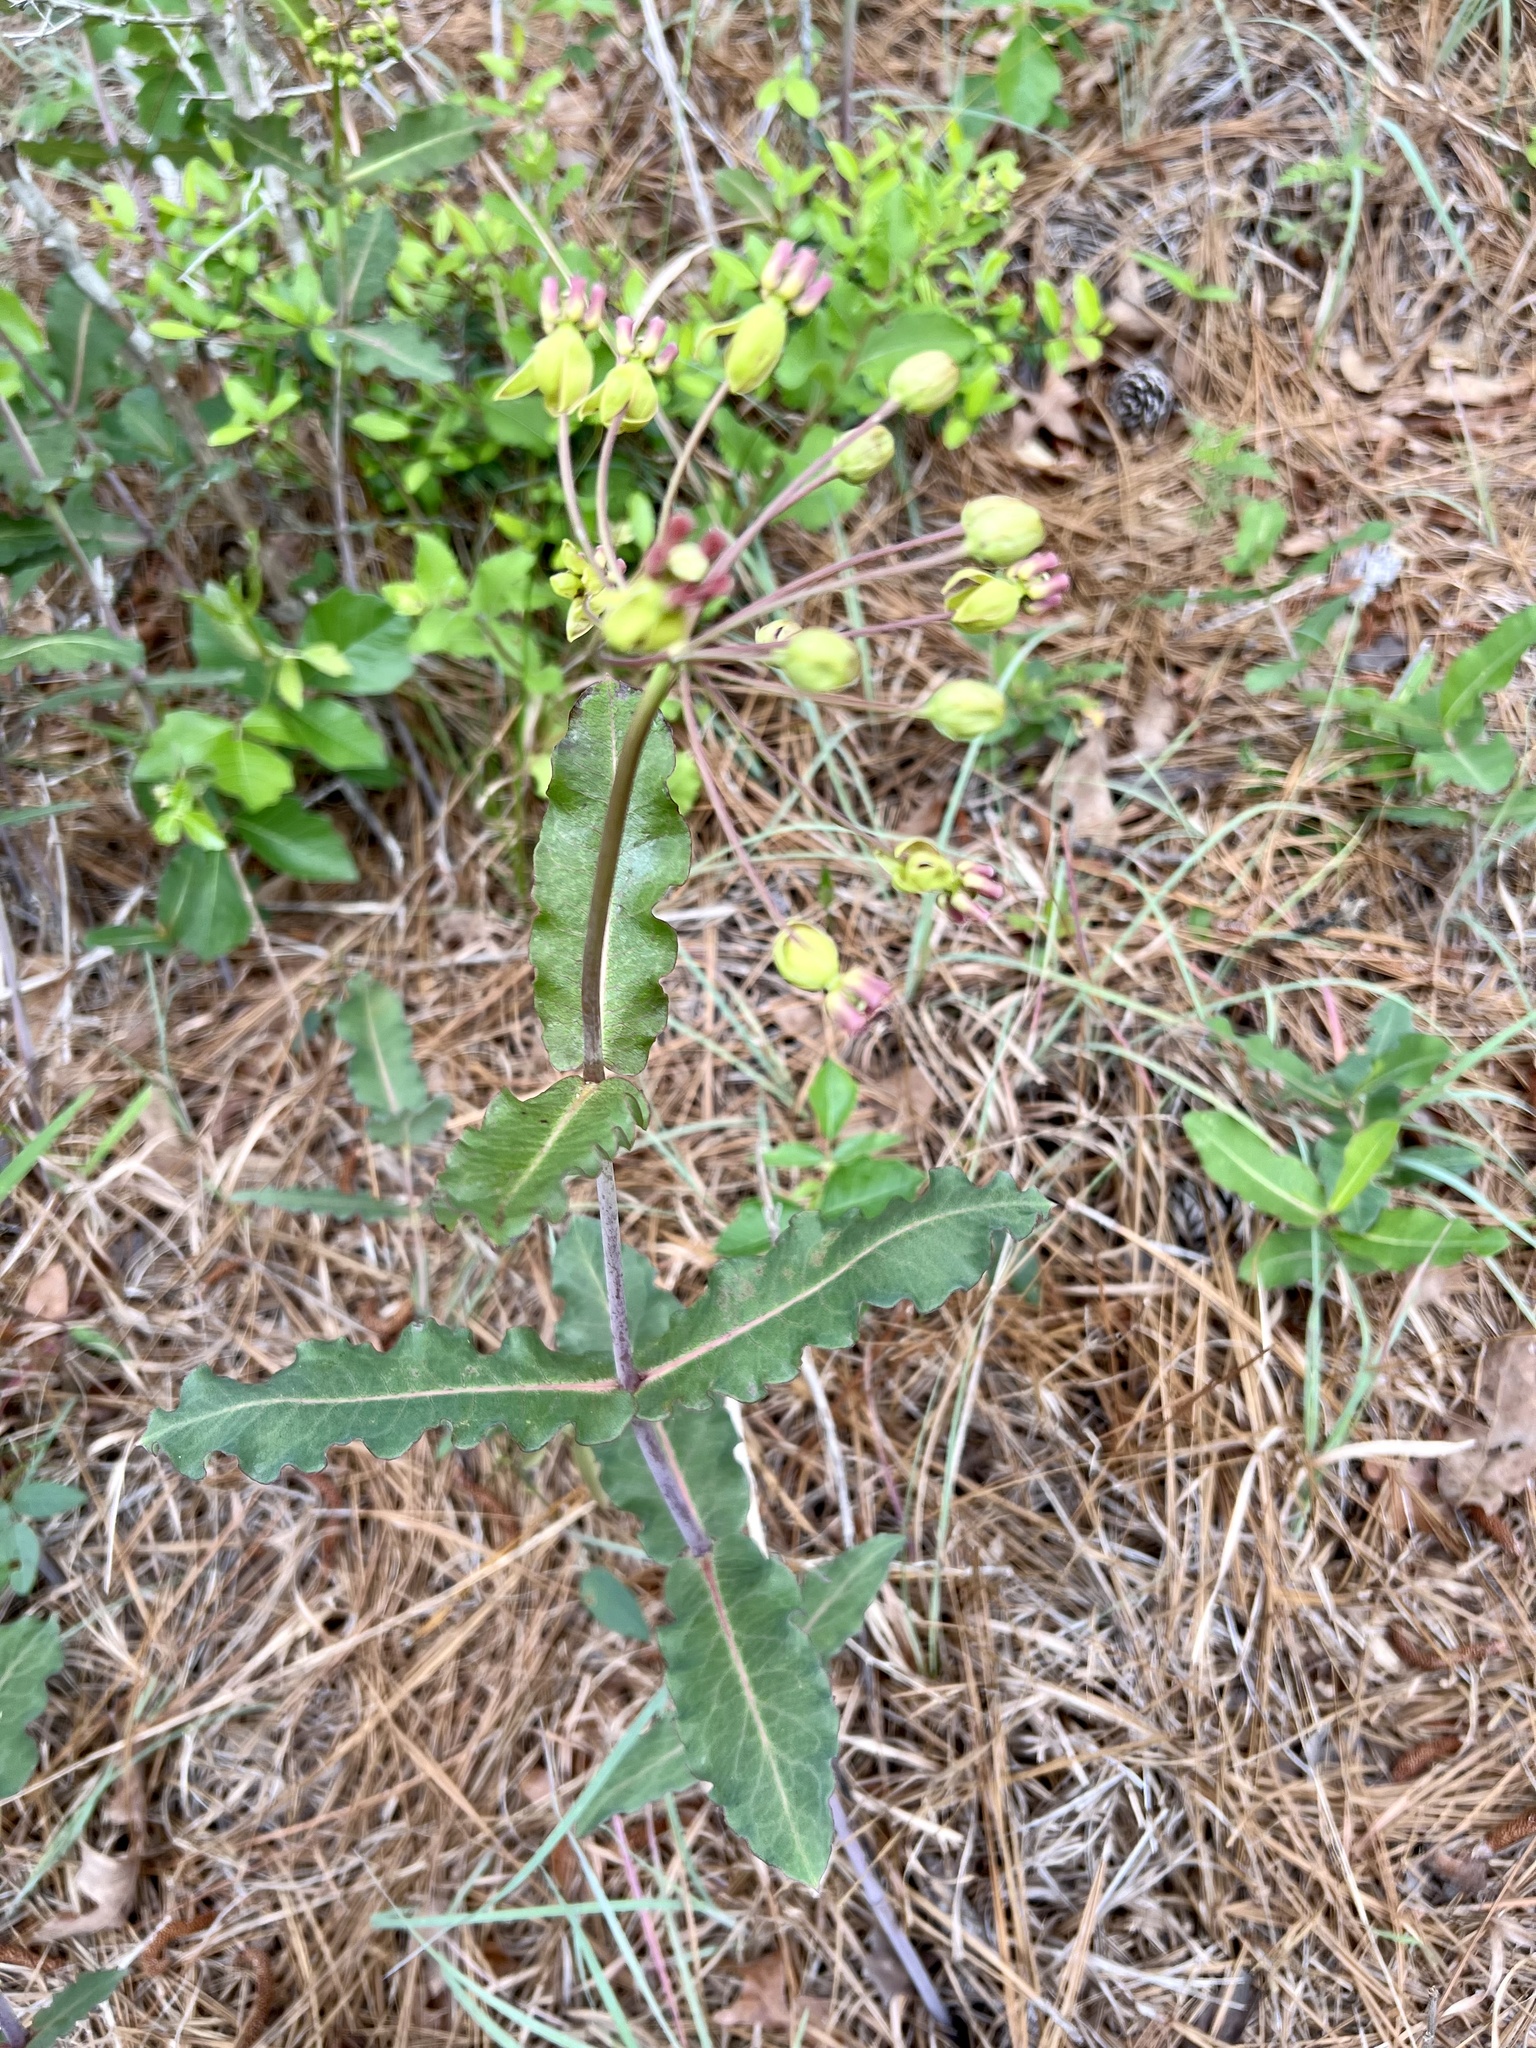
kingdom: Plantae
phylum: Tracheophyta
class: Magnoliopsida
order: Gentianales
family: Apocynaceae
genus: Asclepias
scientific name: Asclepias amplexicaulis
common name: Blunt-leaf milkweed
